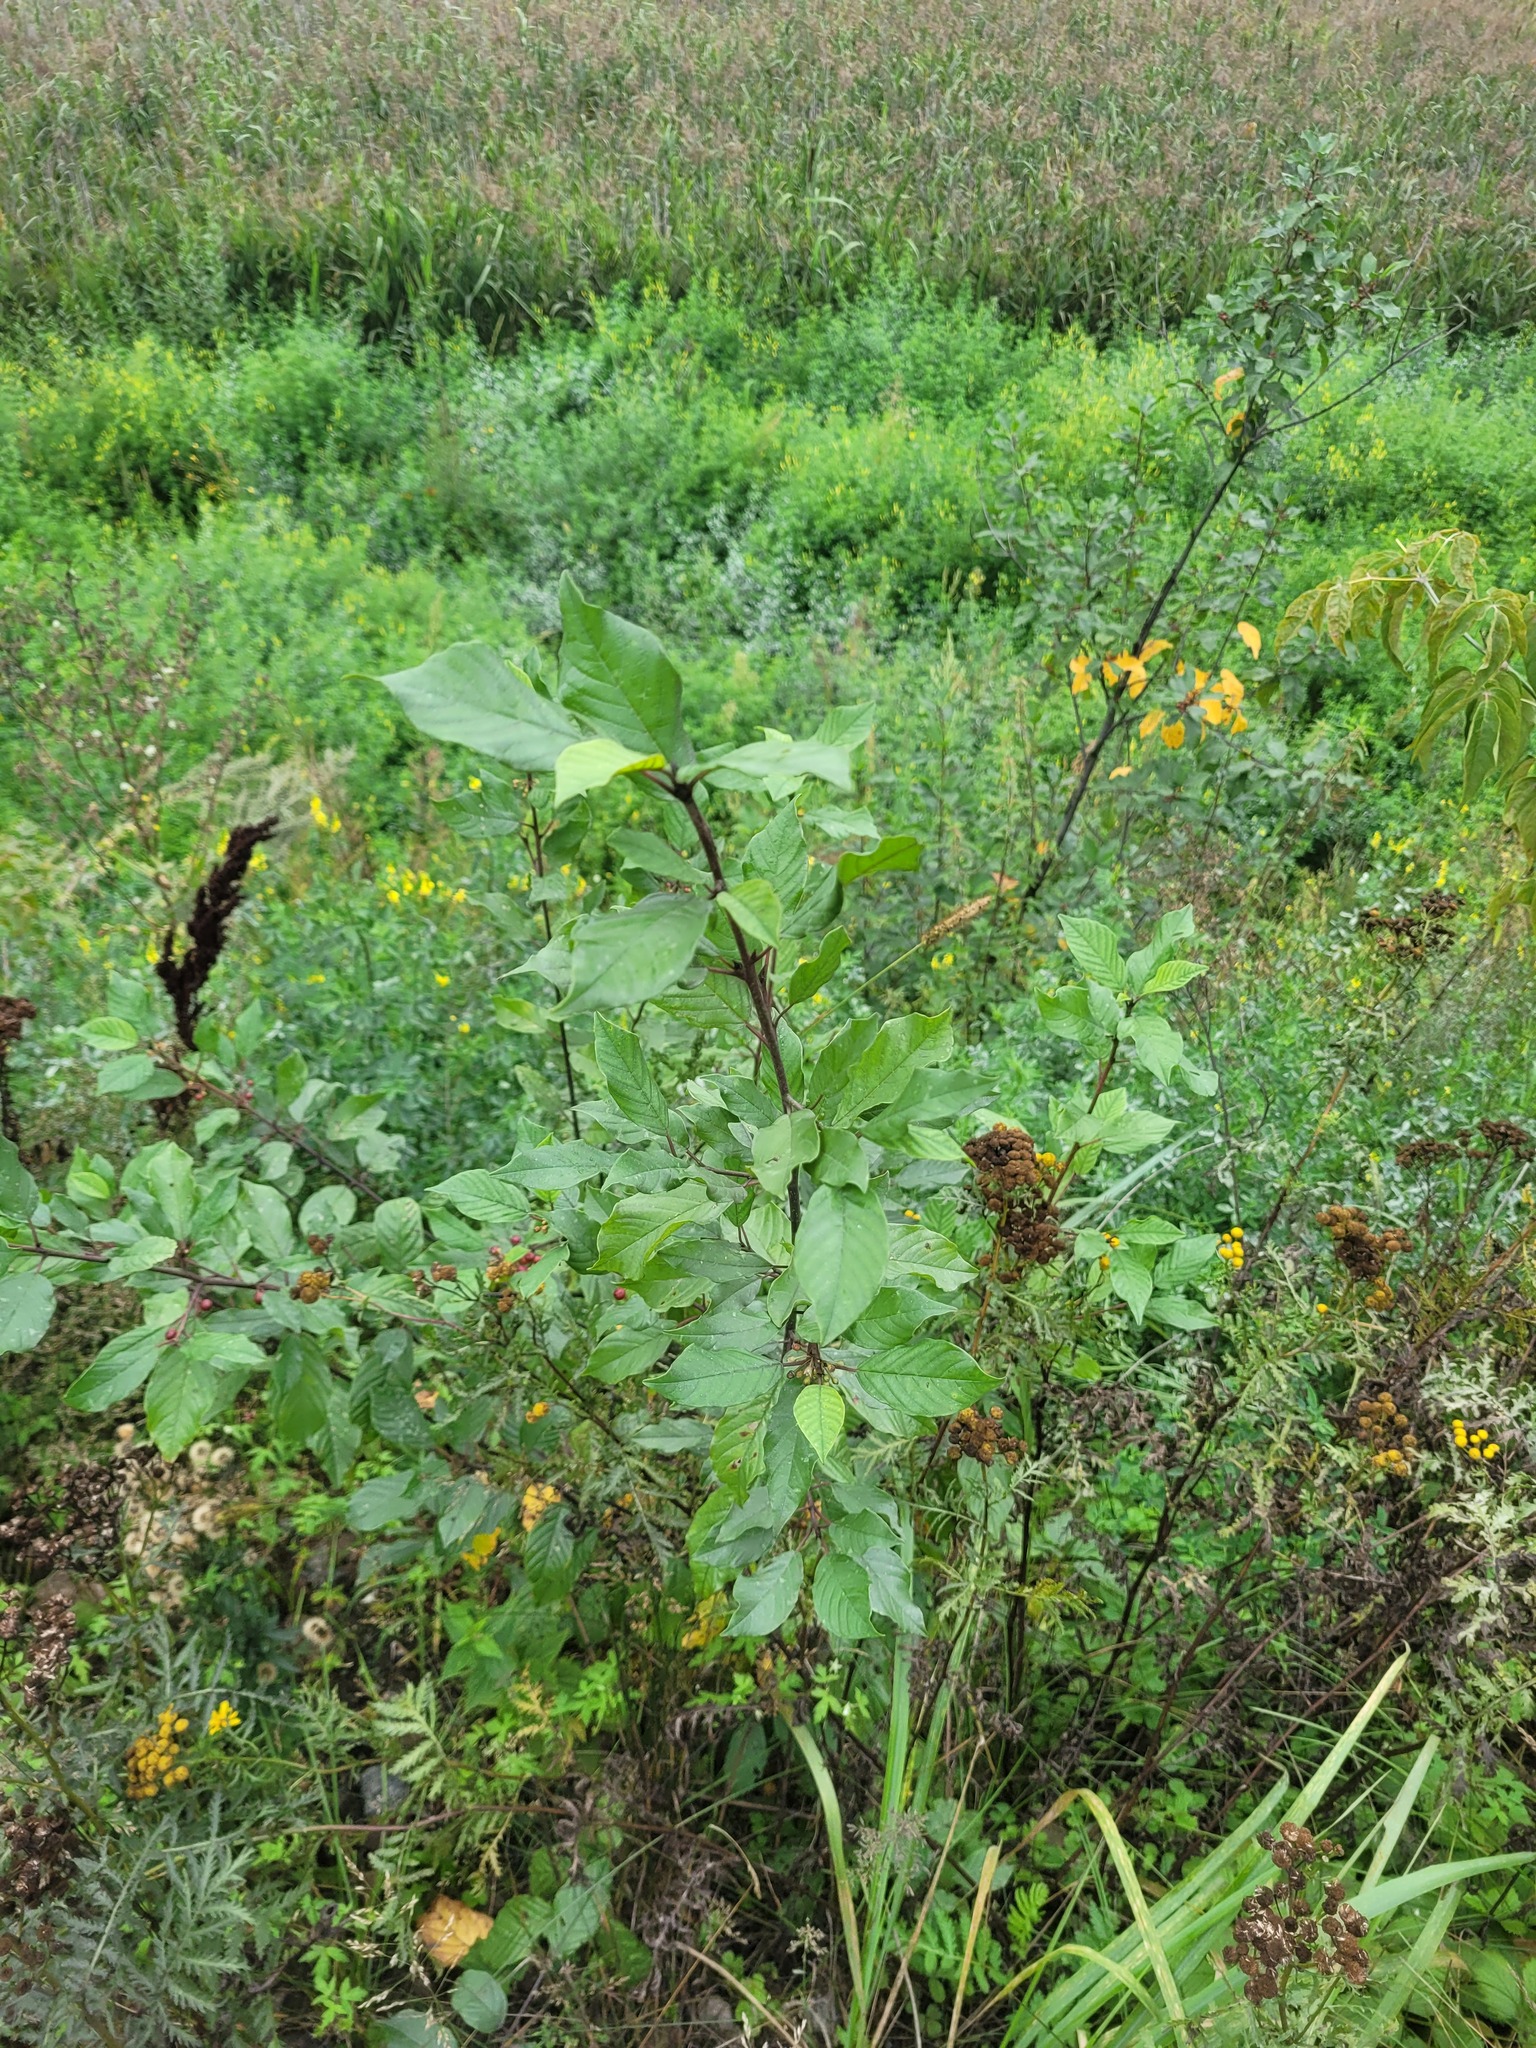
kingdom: Plantae
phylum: Tracheophyta
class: Magnoliopsida
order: Rosales
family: Rhamnaceae
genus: Frangula
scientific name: Frangula alnus
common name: Alder buckthorn
